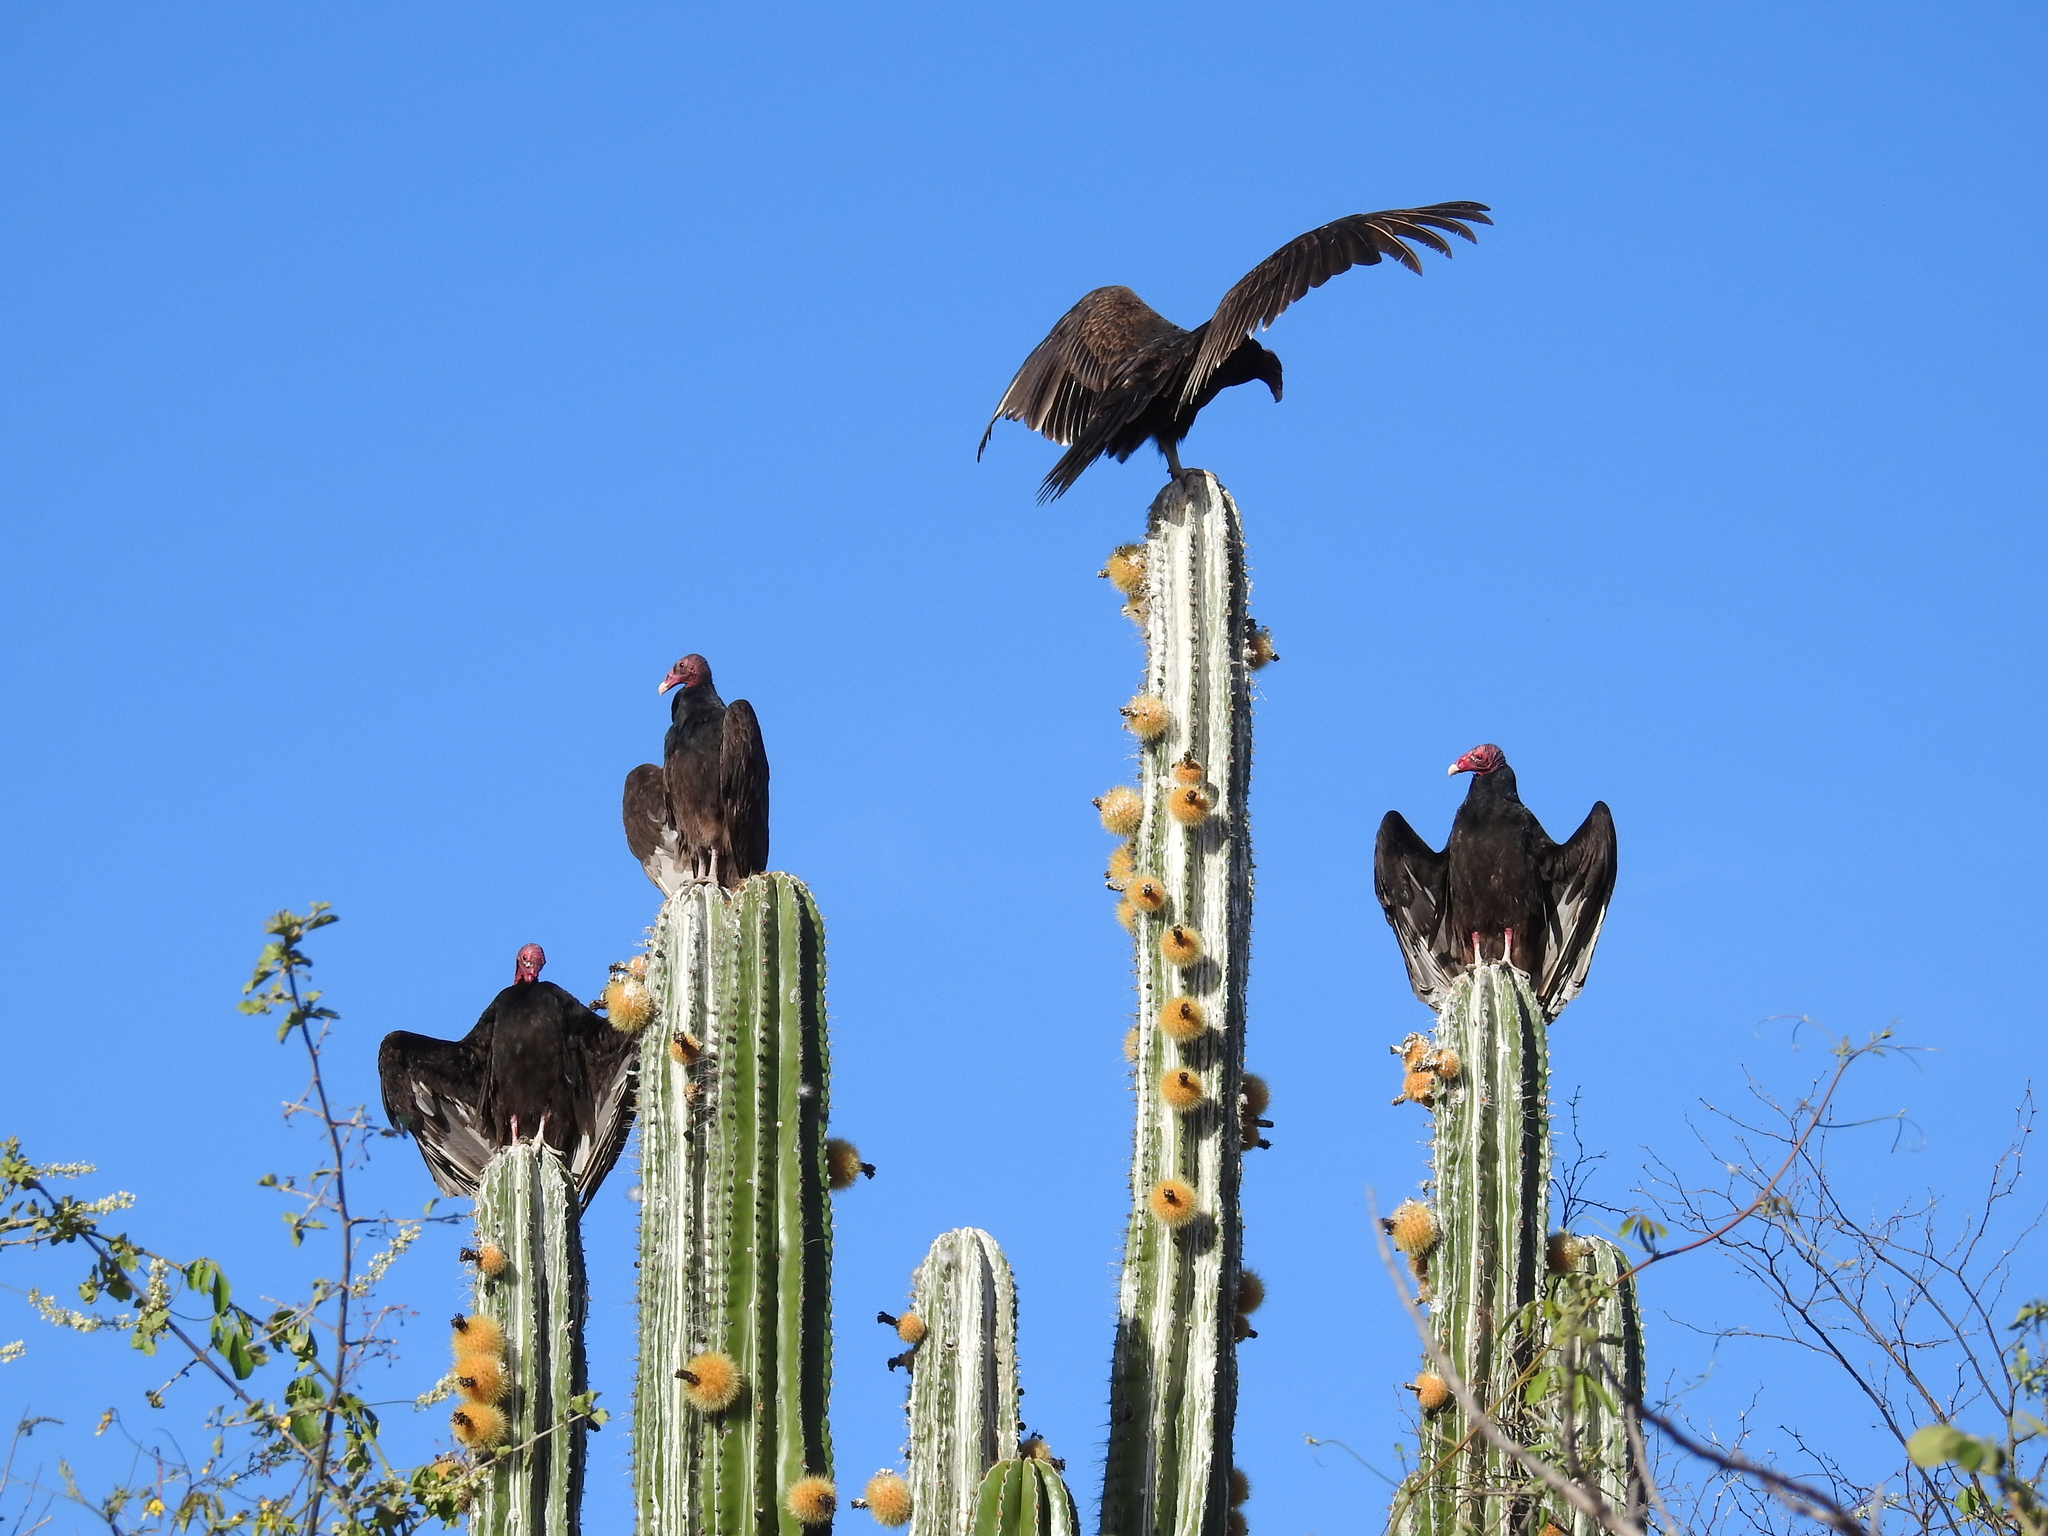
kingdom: Plantae
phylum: Tracheophyta
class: Magnoliopsida
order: Caryophyllales
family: Cactaceae
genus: Pachycereus
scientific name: Pachycereus pecten-aboriginum
